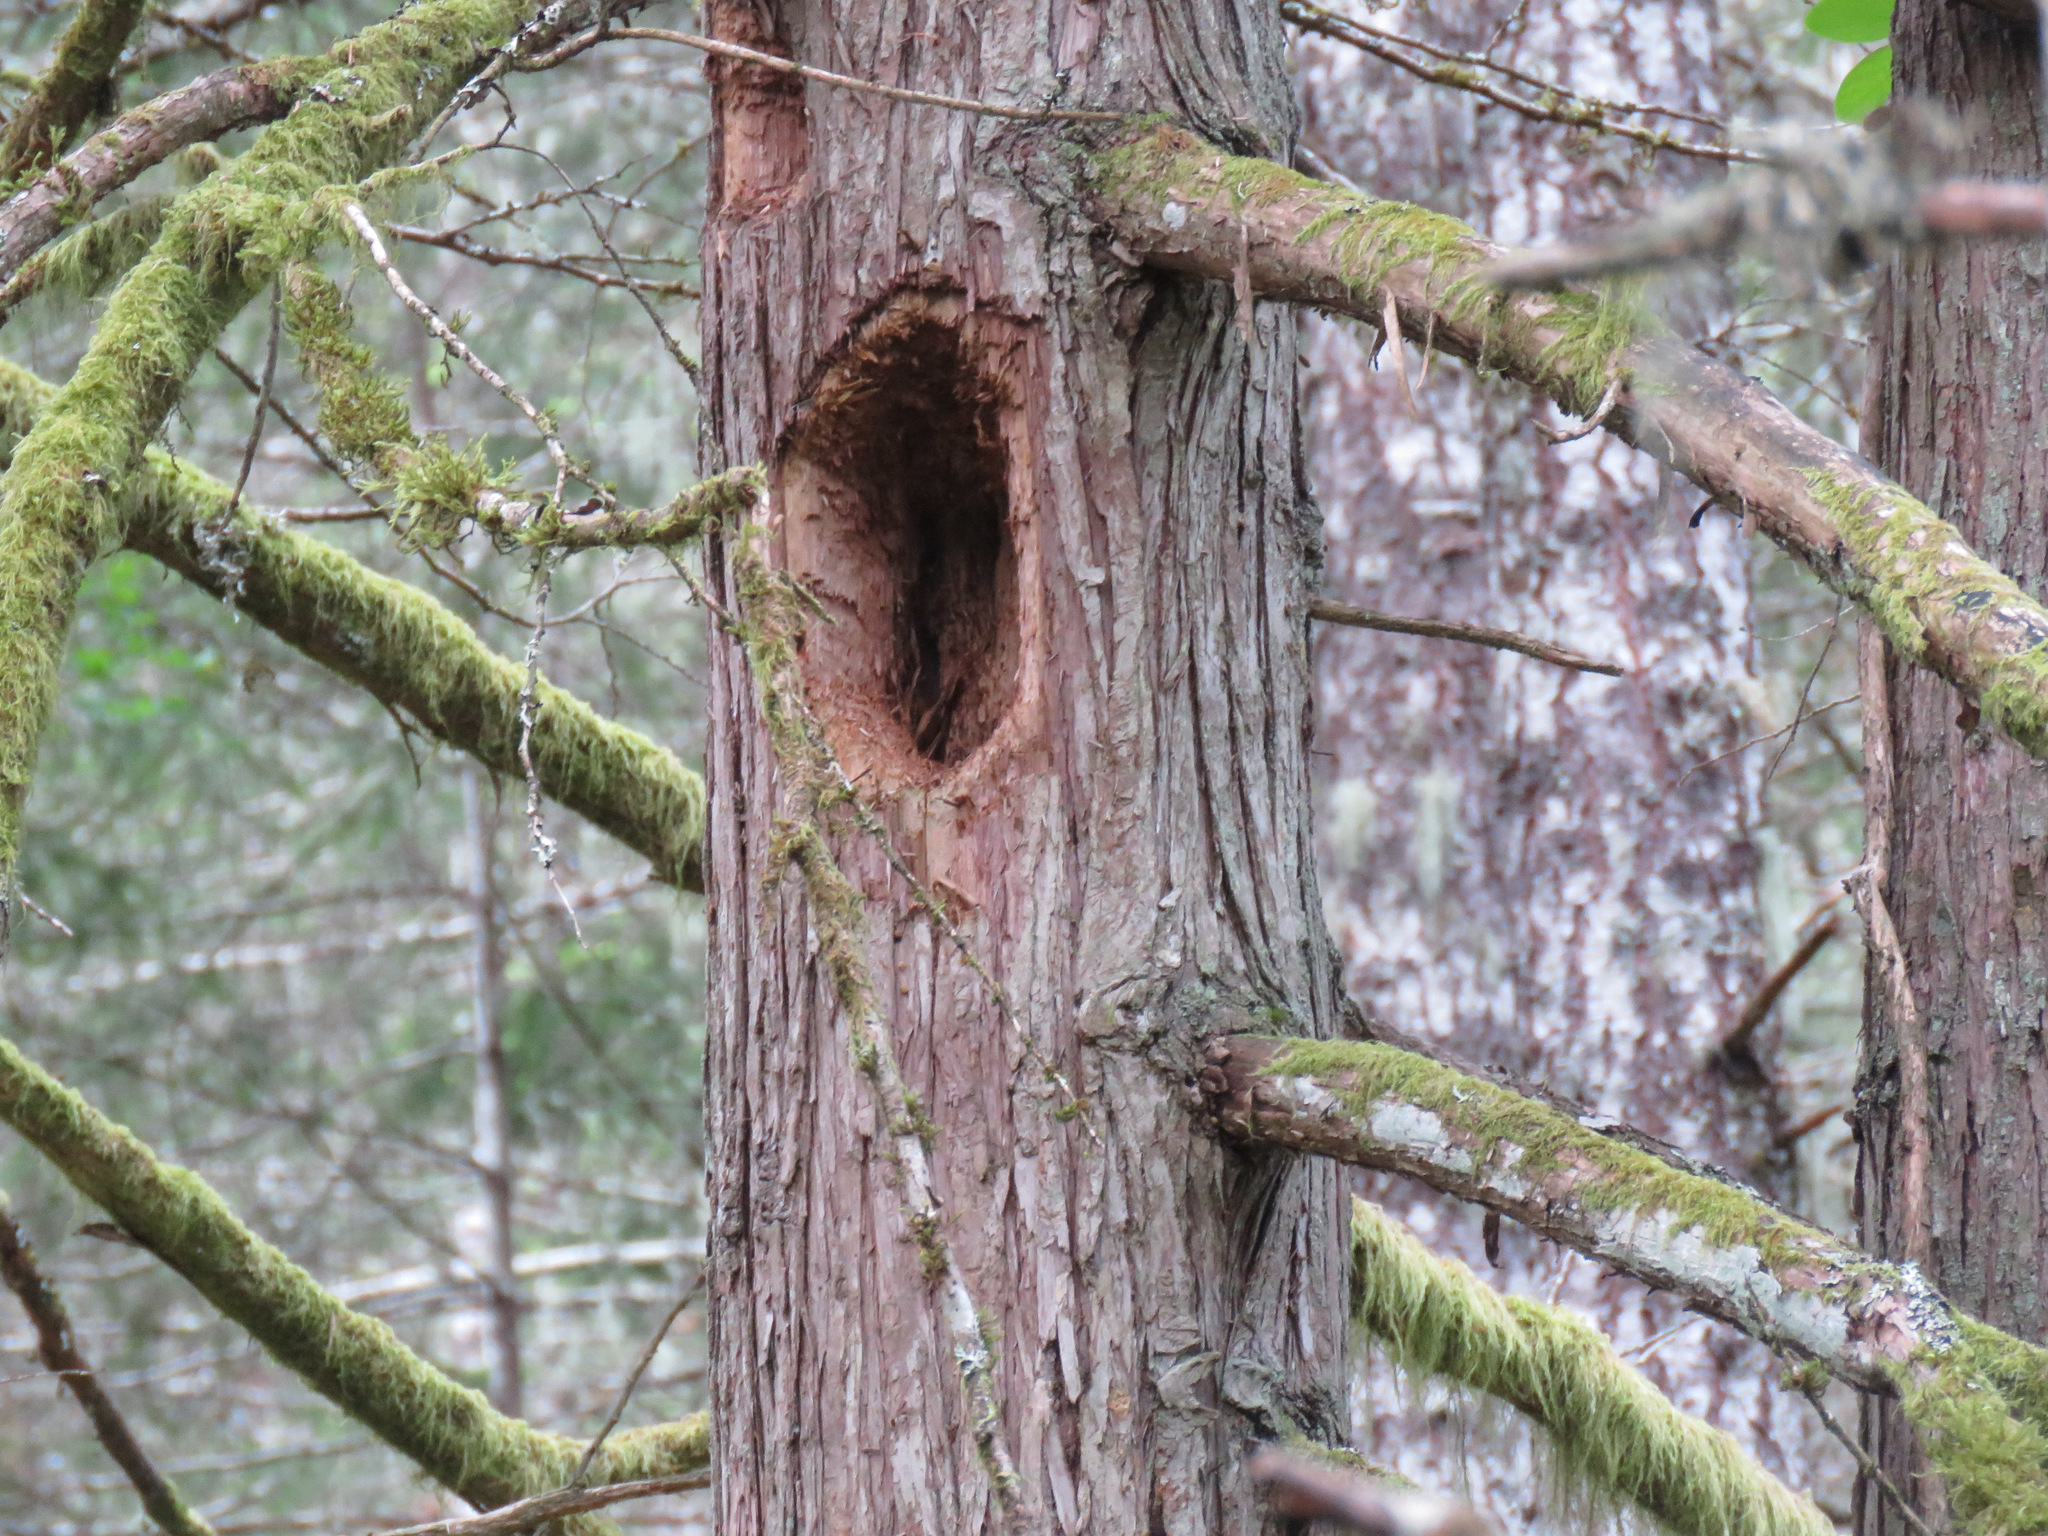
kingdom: Animalia
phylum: Chordata
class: Aves
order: Piciformes
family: Picidae
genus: Dryocopus
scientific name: Dryocopus pileatus
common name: Pileated woodpecker
